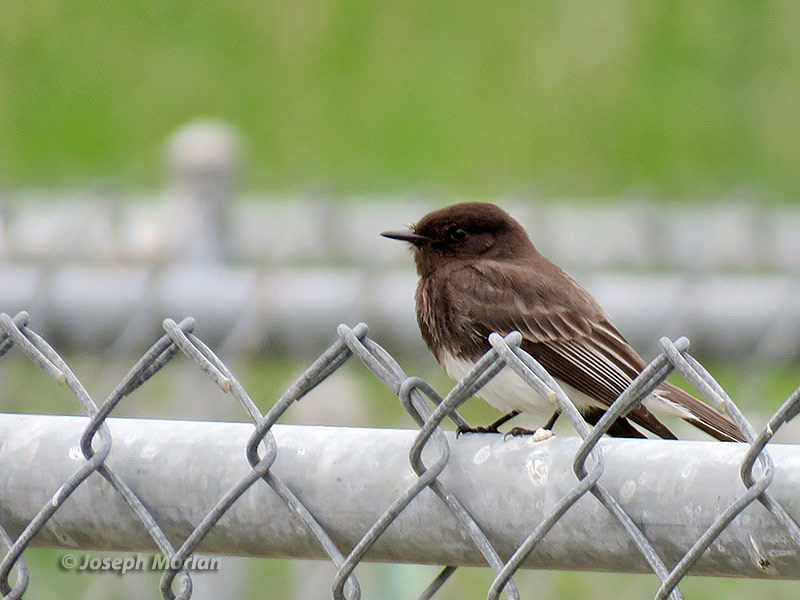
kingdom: Animalia
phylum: Chordata
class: Aves
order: Passeriformes
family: Tyrannidae
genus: Sayornis
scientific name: Sayornis nigricans
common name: Black phoebe
